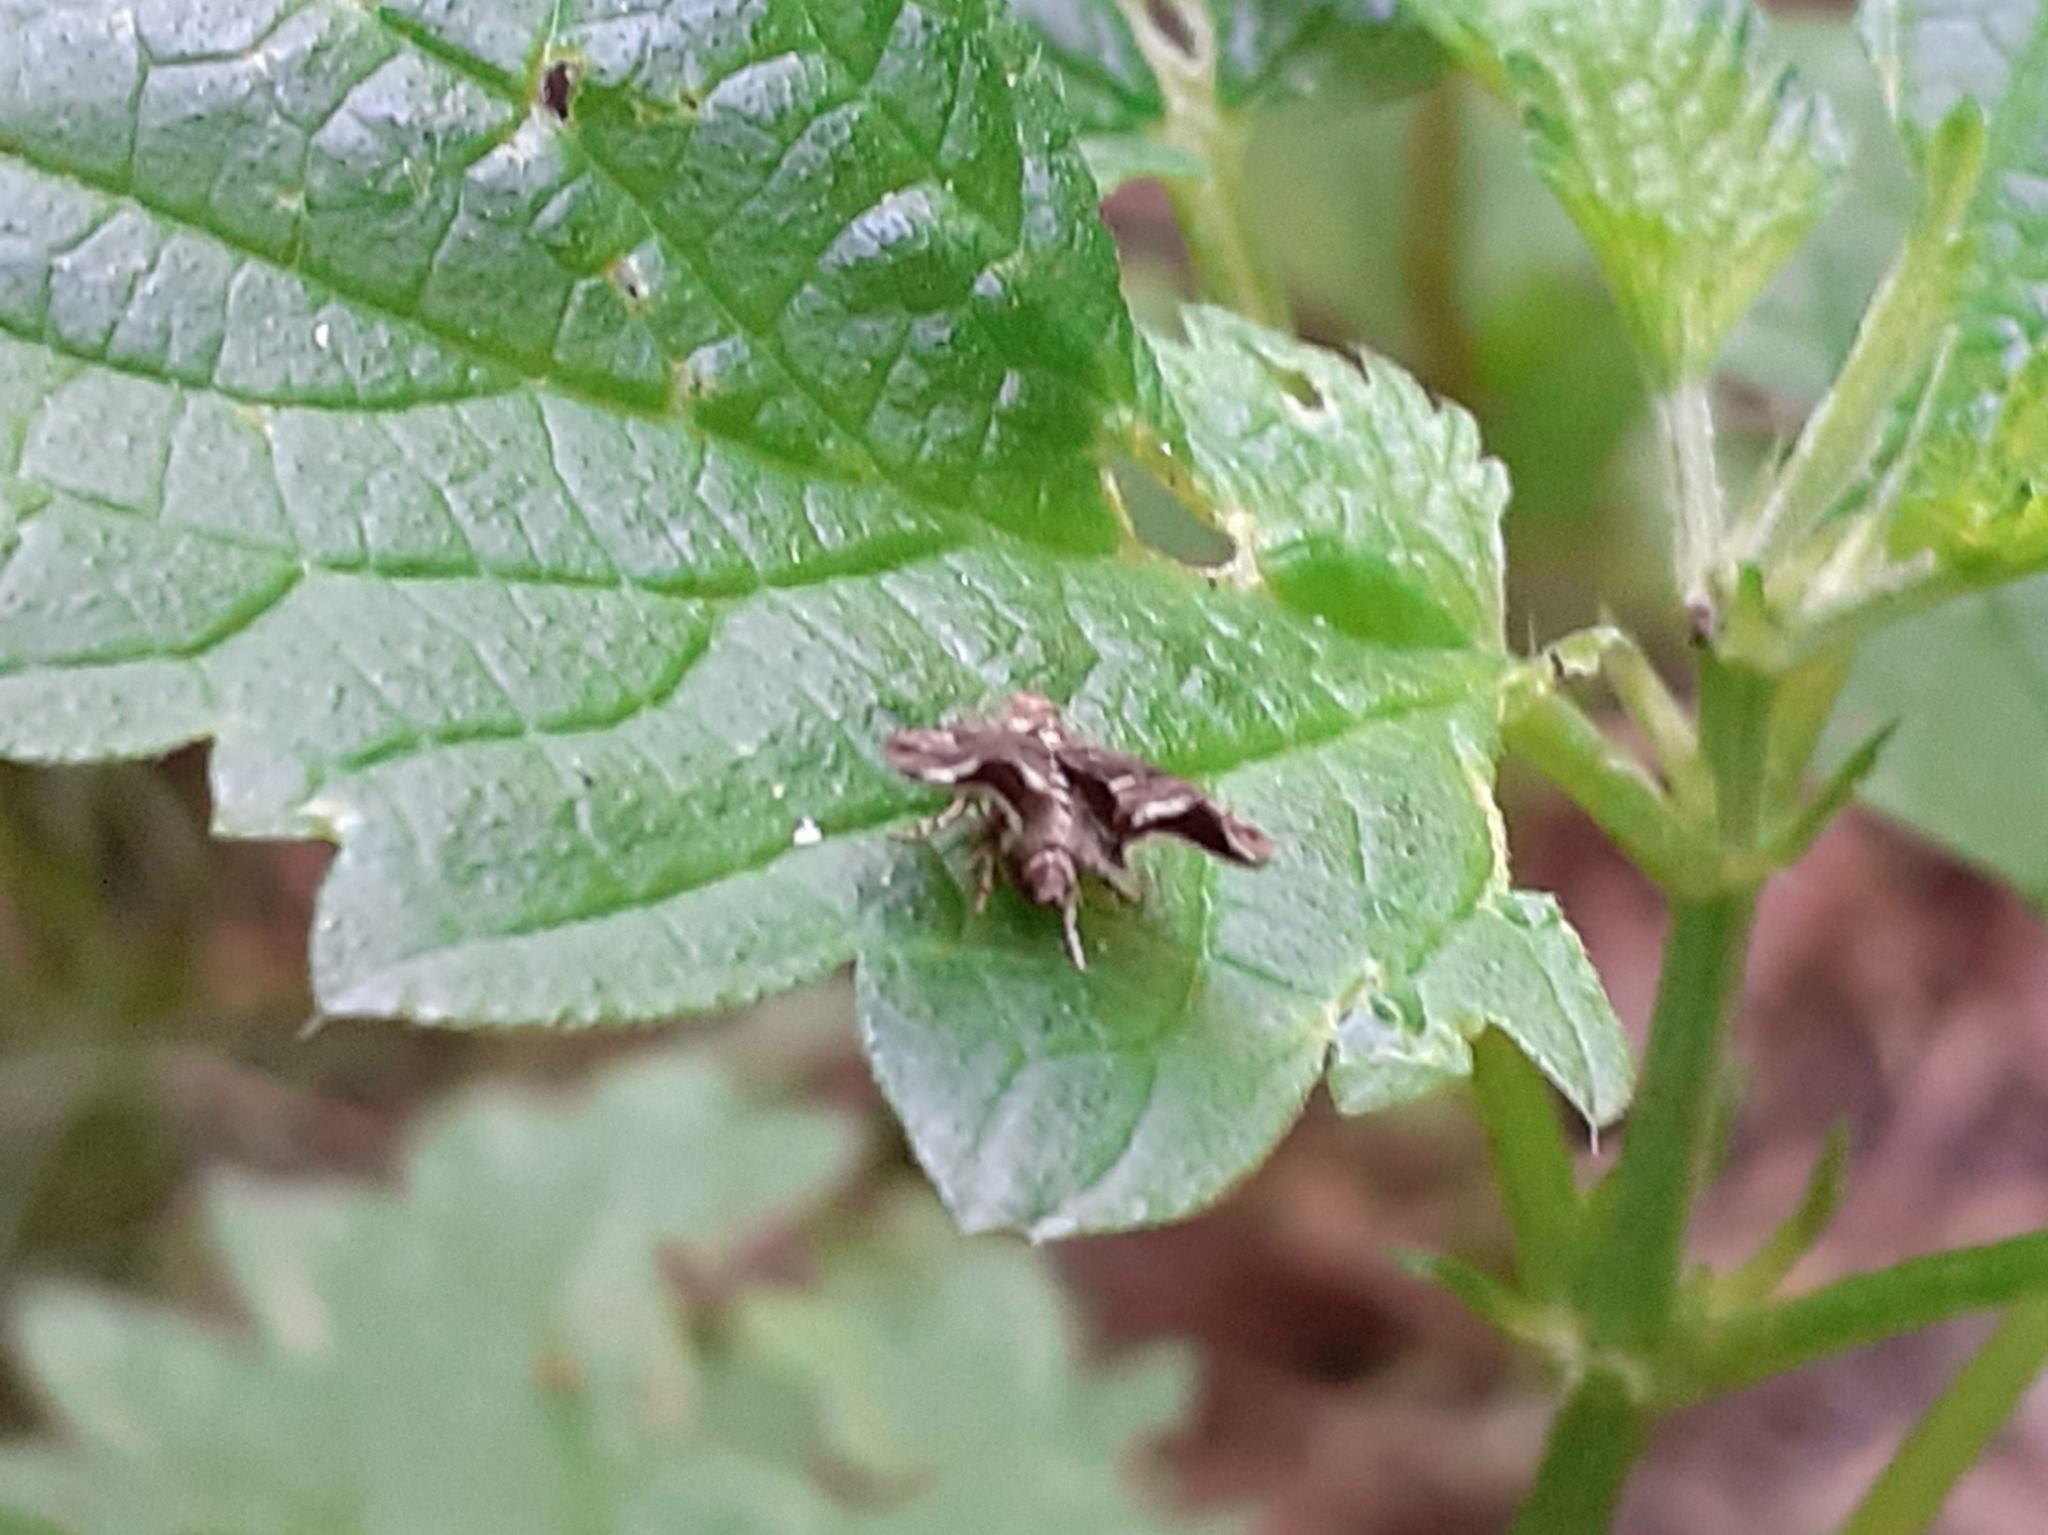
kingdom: Animalia
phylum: Arthropoda
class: Insecta
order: Lepidoptera
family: Choreutidae
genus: Anthophila
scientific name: Anthophila fabriciana
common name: Nettle-tap
